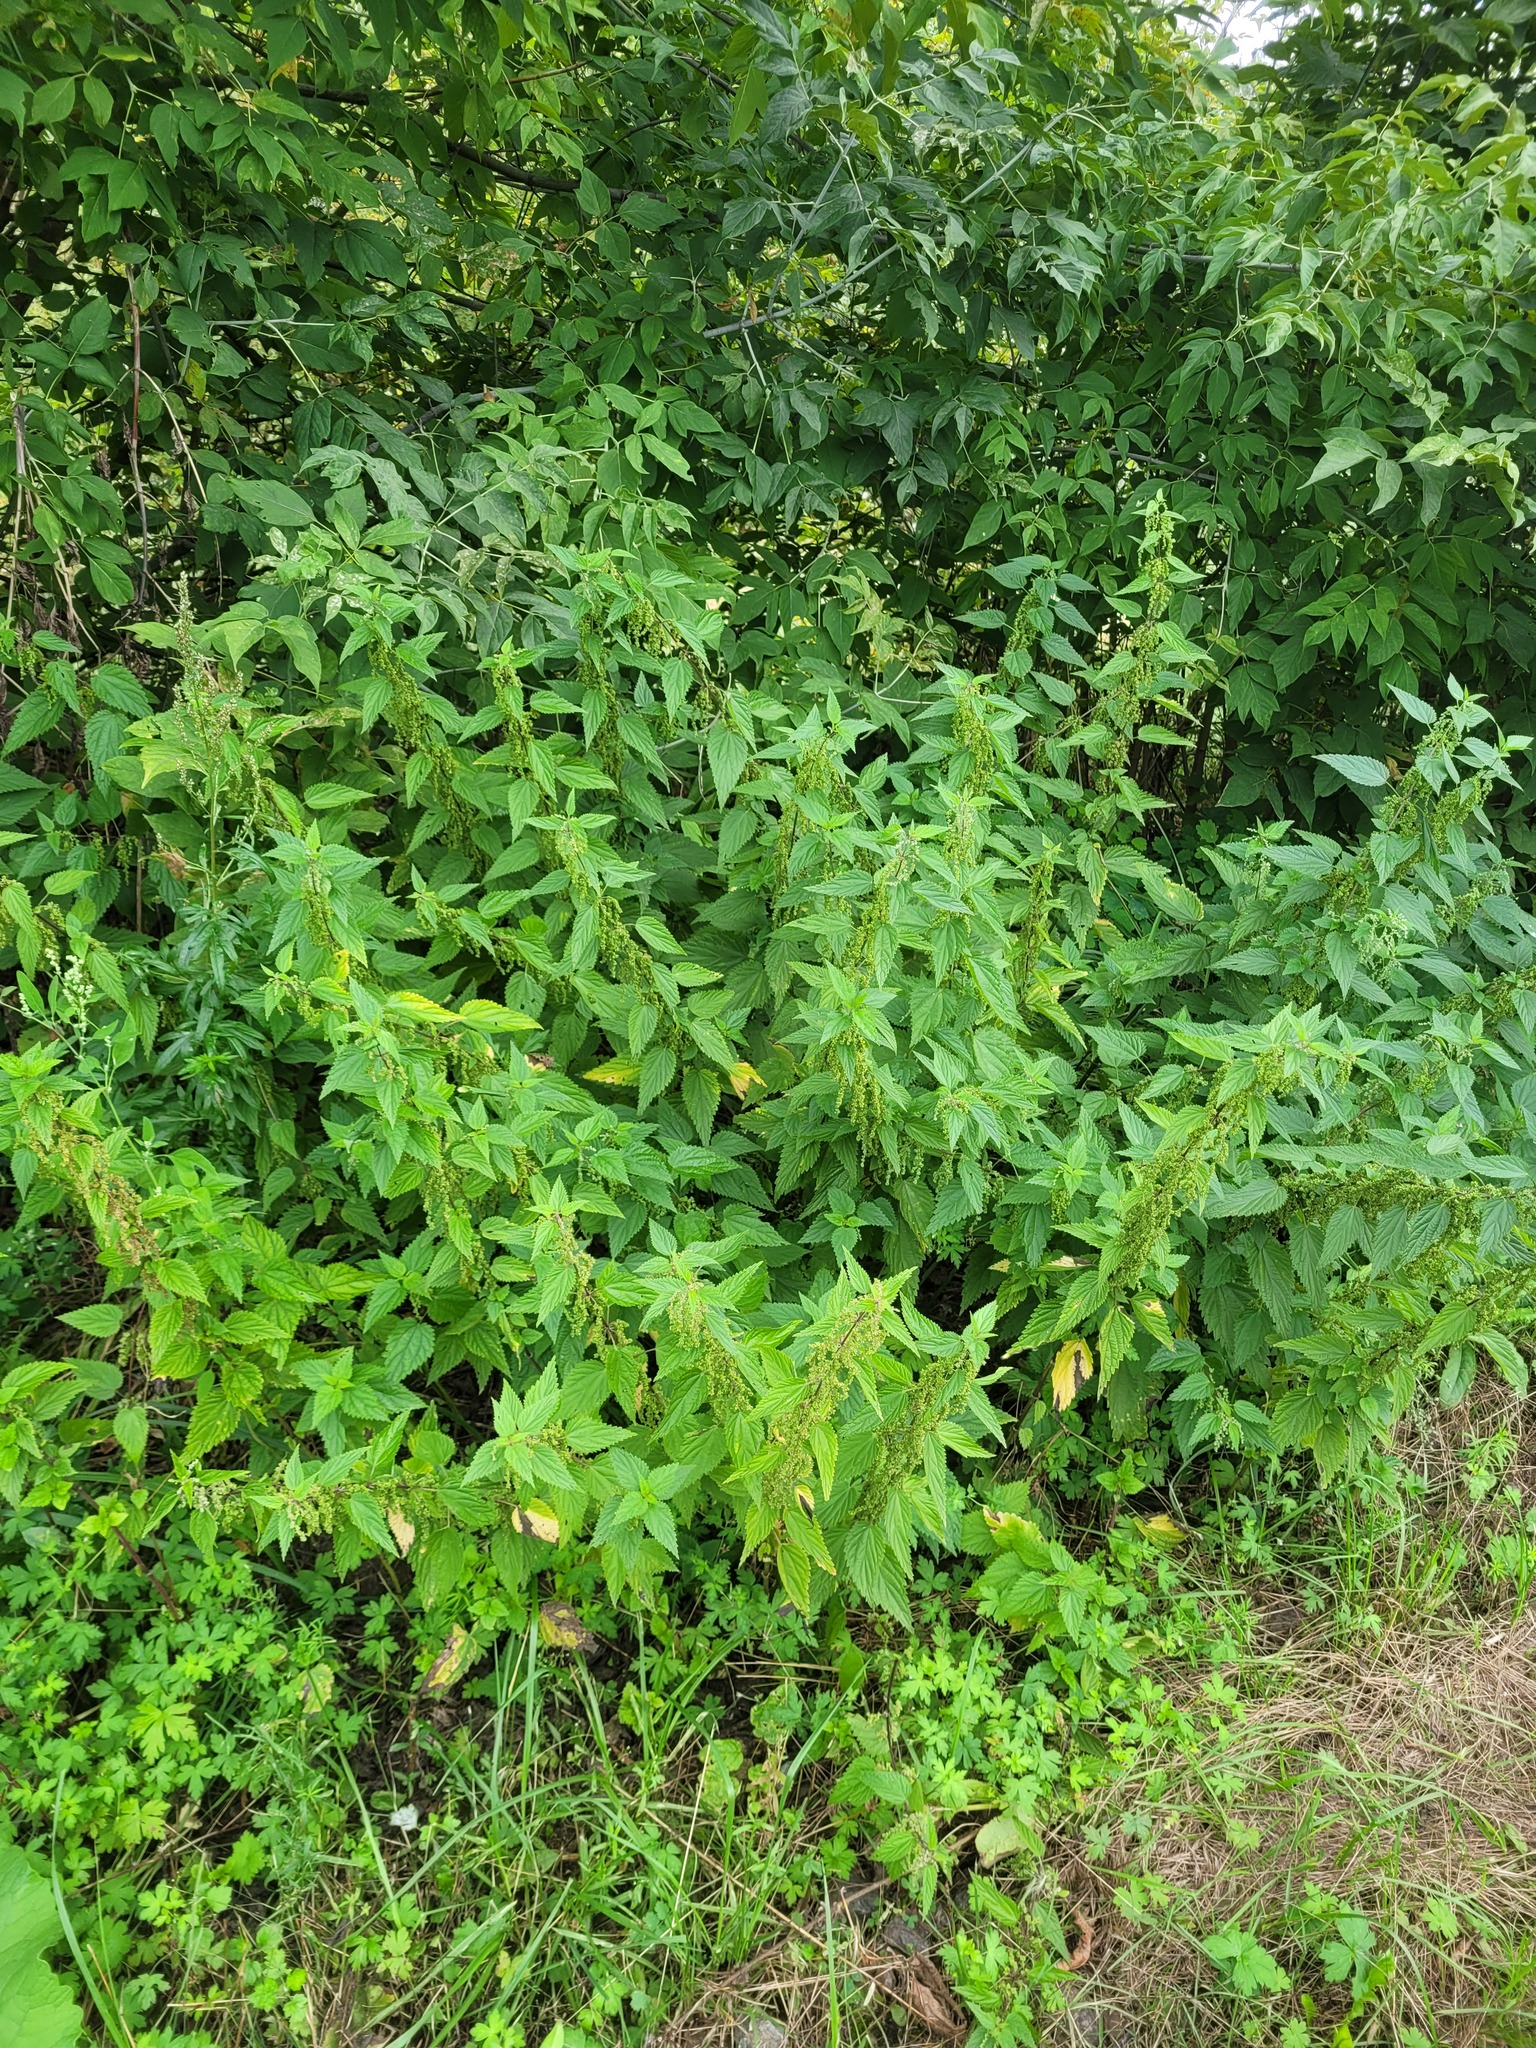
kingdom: Plantae
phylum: Tracheophyta
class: Magnoliopsida
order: Rosales
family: Urticaceae
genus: Urtica
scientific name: Urtica dioica
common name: Common nettle
